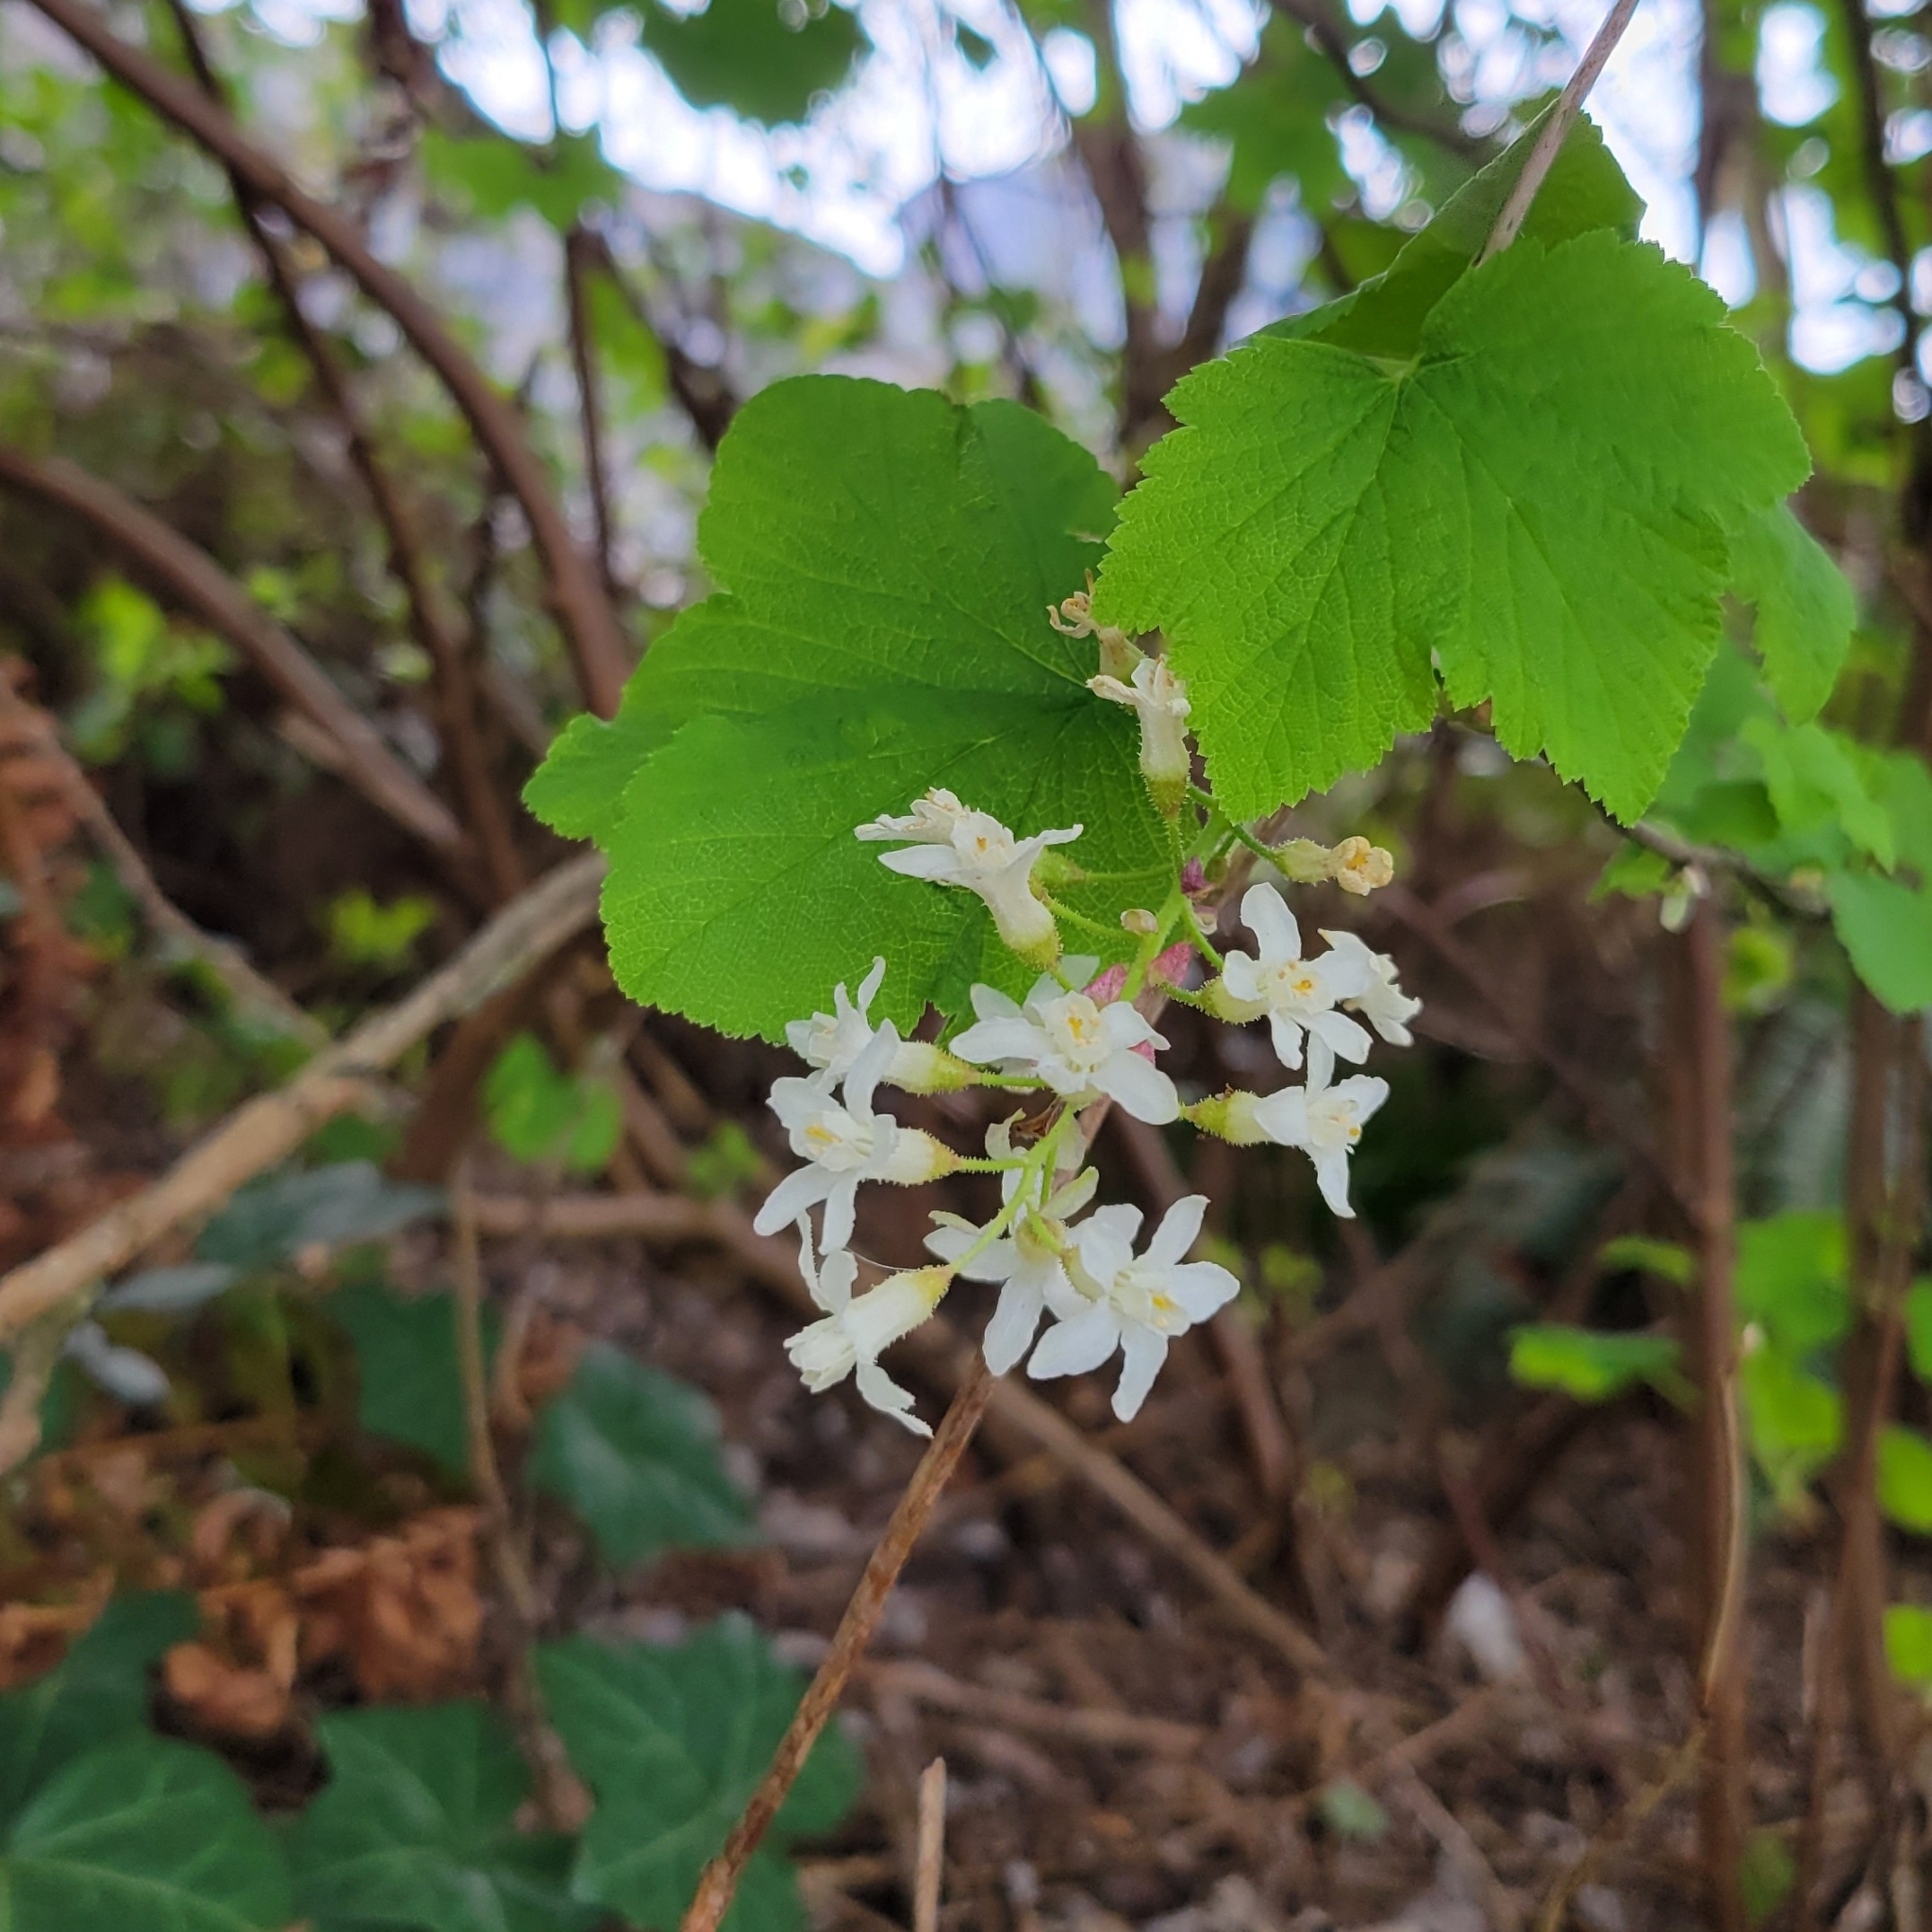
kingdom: Plantae
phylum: Tracheophyta
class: Magnoliopsida
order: Saxifragales
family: Grossulariaceae
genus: Ribes
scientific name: Ribes sanguineum
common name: Flowering currant
